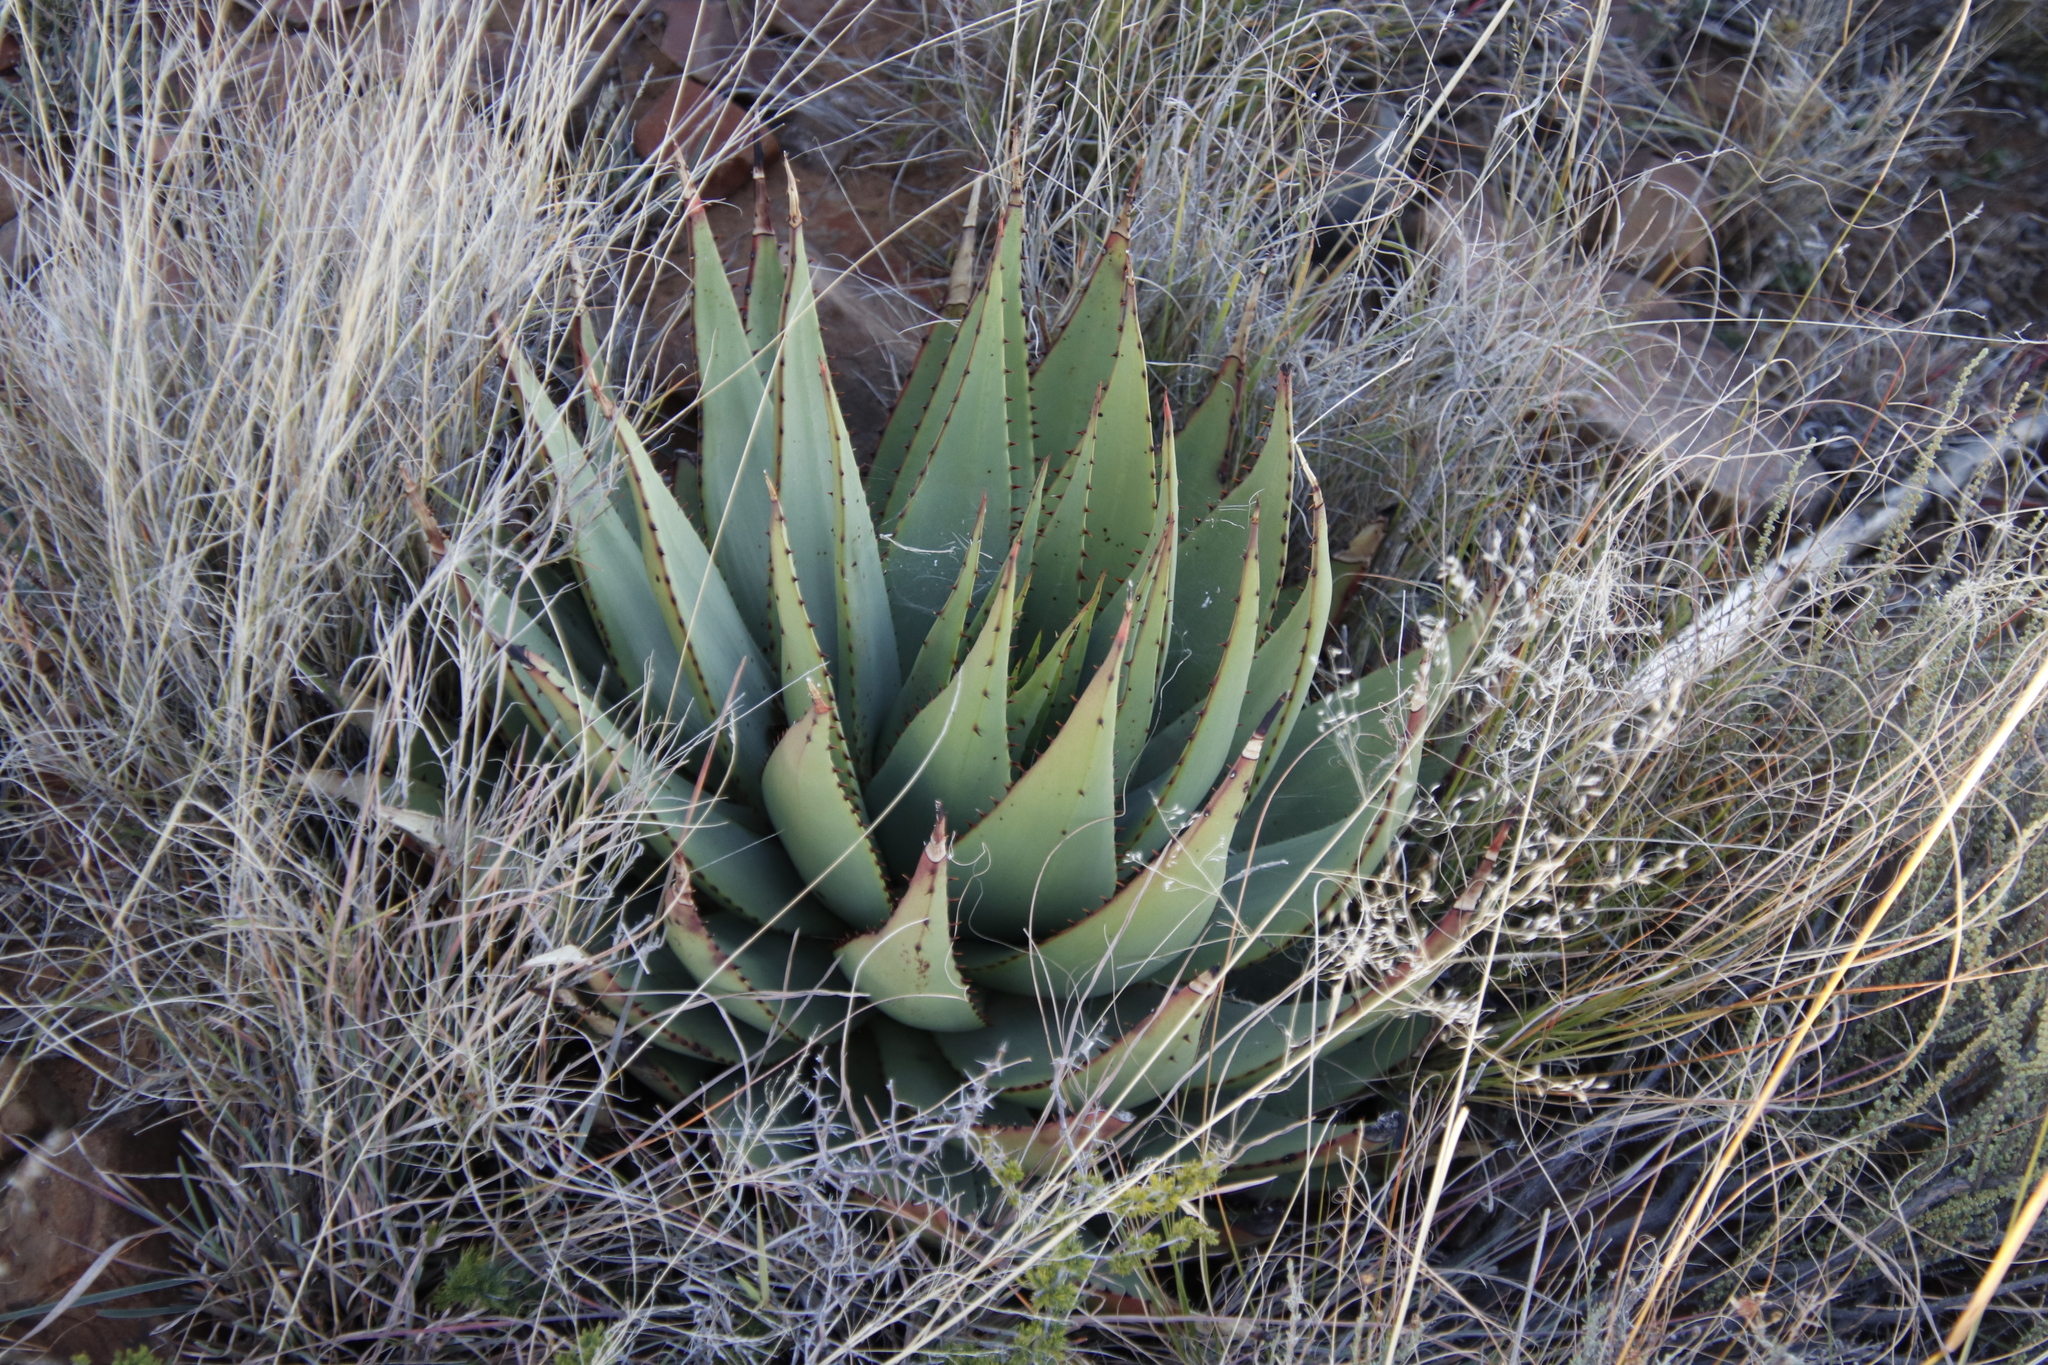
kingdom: Plantae
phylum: Tracheophyta
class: Liliopsida
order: Asparagales
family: Asphodelaceae
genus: Aloe
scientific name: Aloe broomii
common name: Berg alwyn
